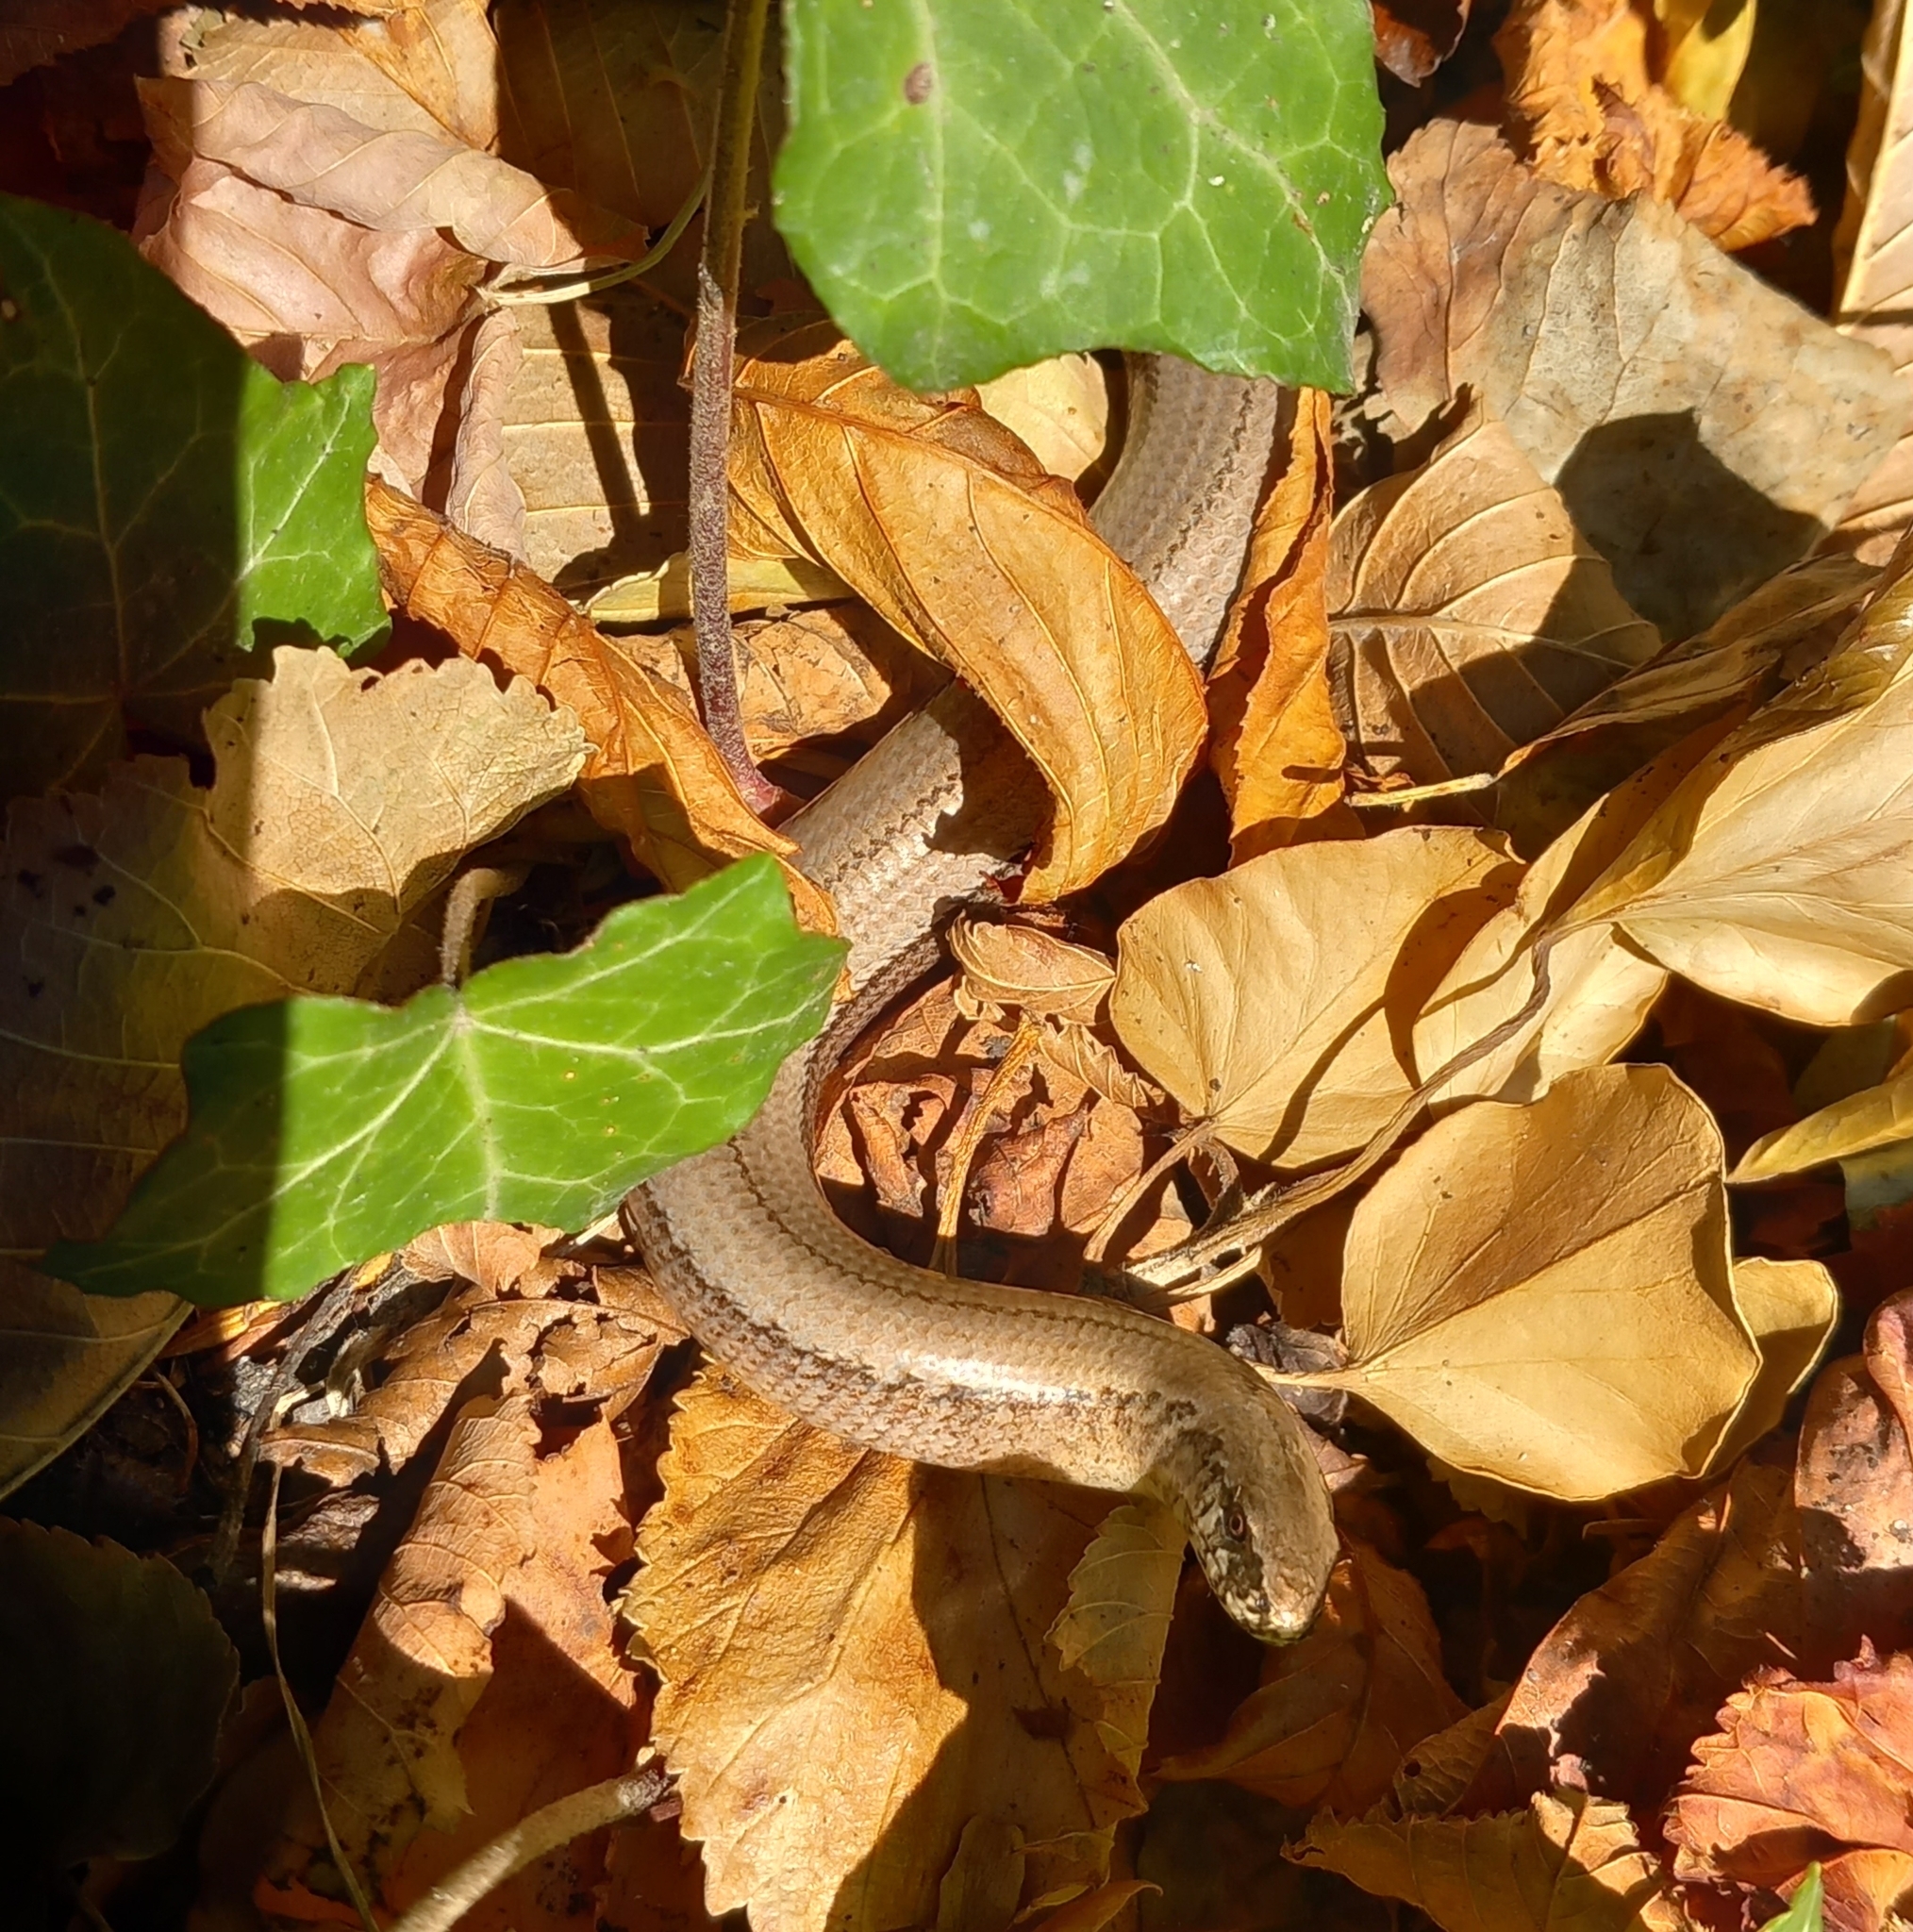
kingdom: Animalia
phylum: Chordata
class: Squamata
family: Anguidae
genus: Anguis
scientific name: Anguis fragilis
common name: Slow worm
